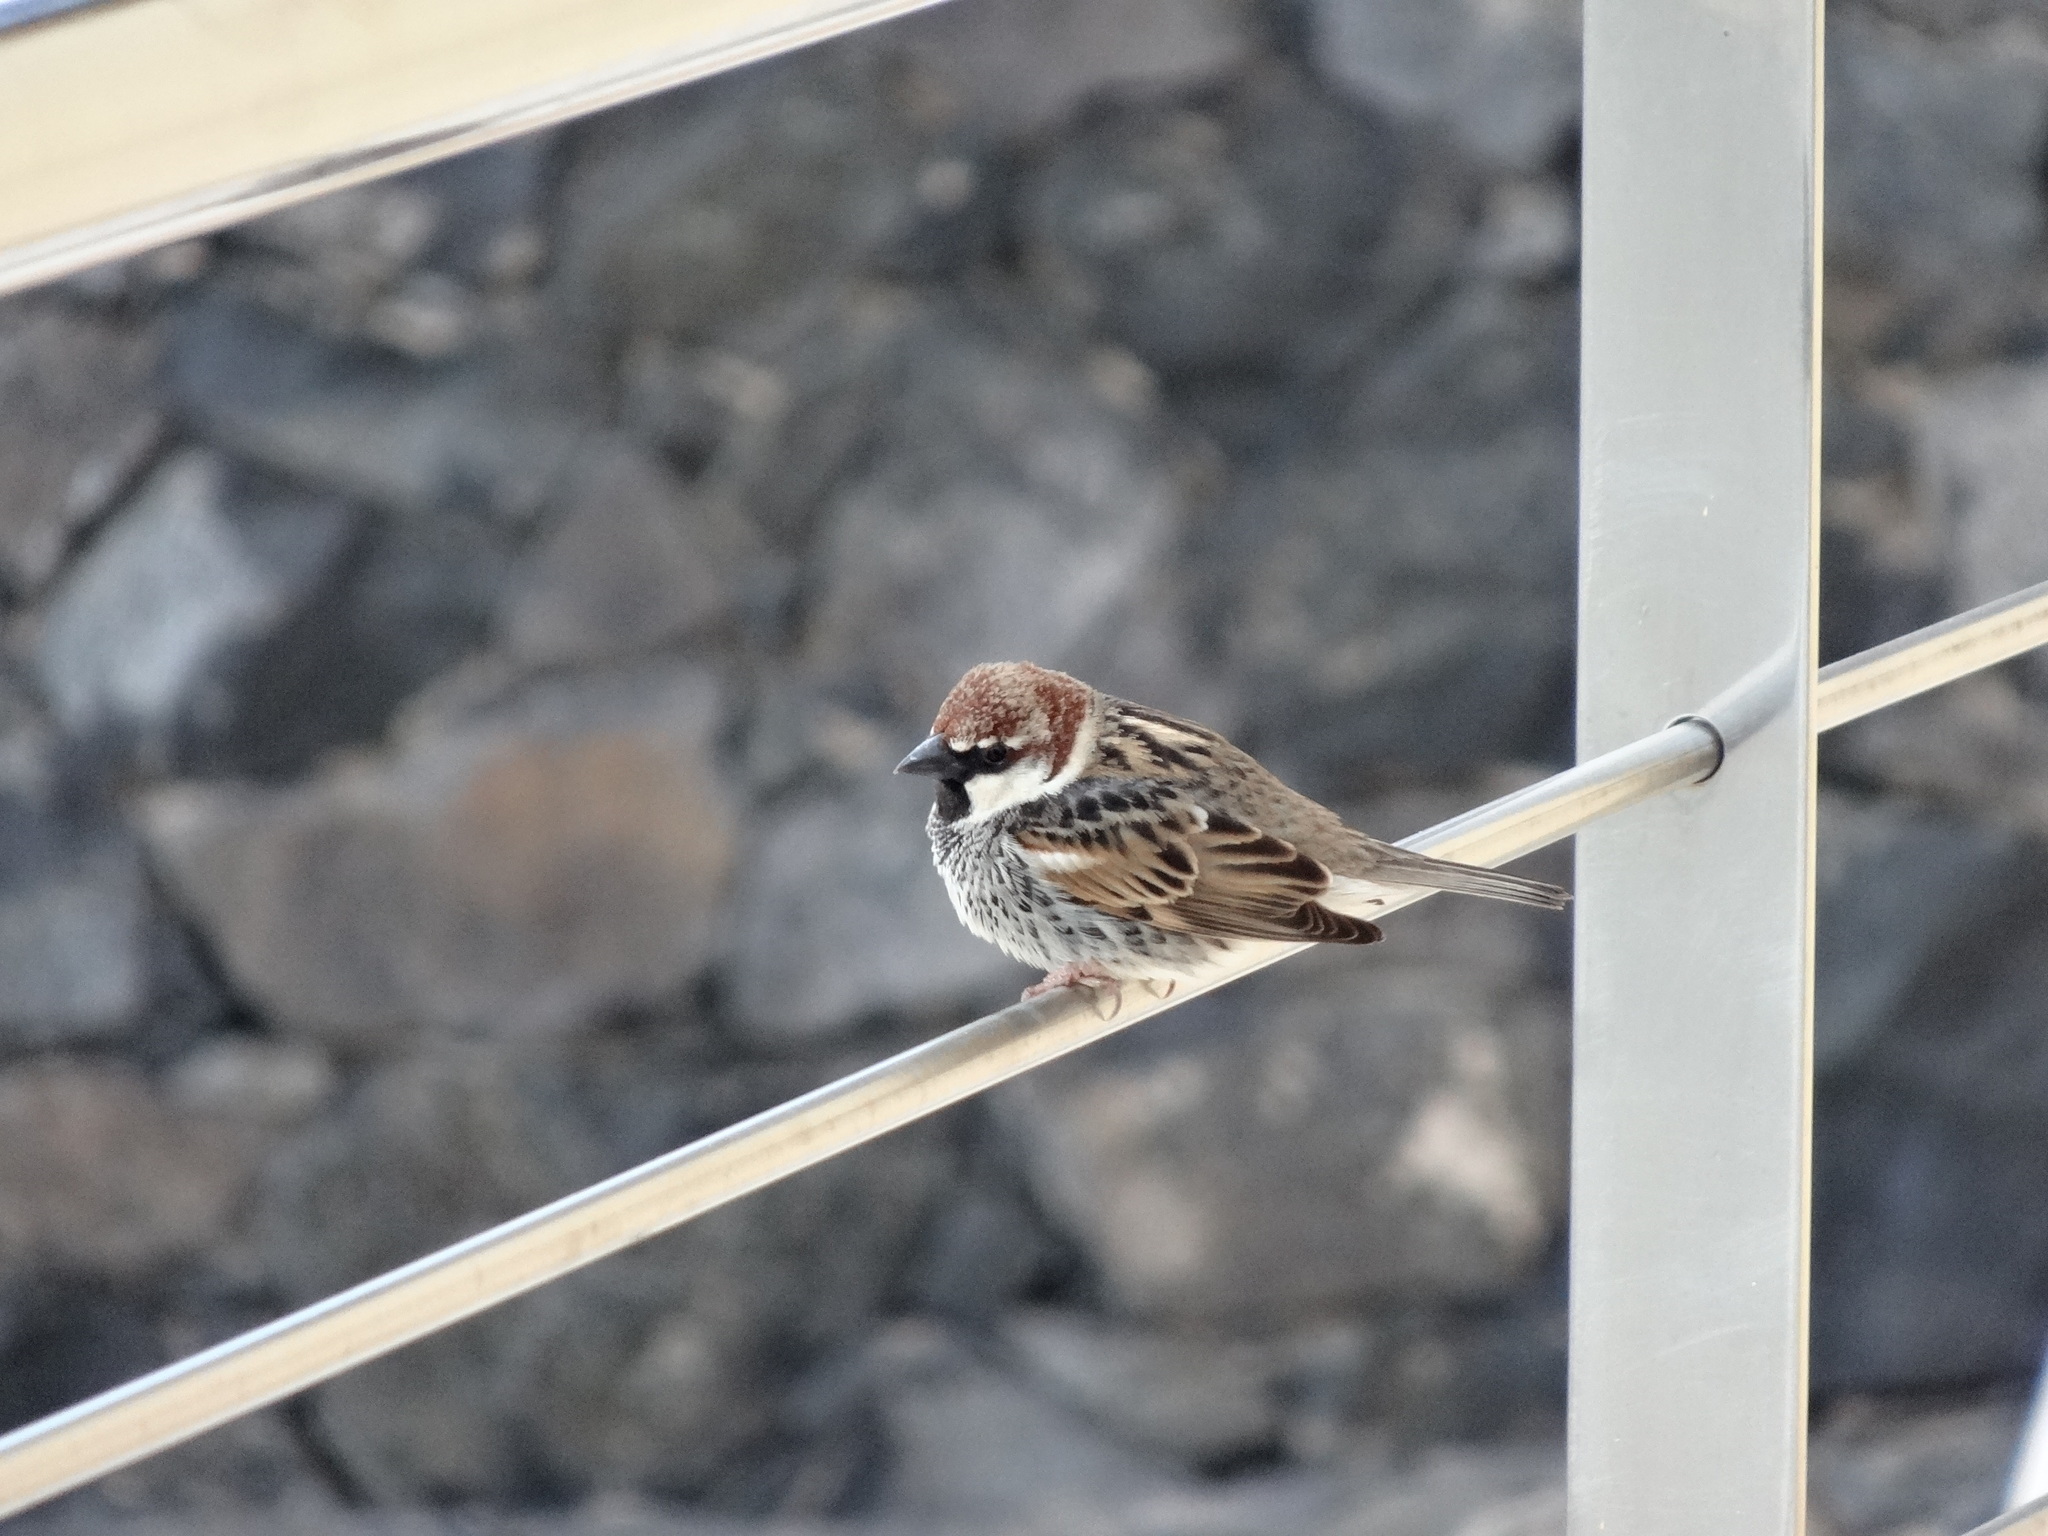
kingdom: Animalia
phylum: Chordata
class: Aves
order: Passeriformes
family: Passeridae
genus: Passer
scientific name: Passer hispaniolensis
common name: Spanish sparrow
